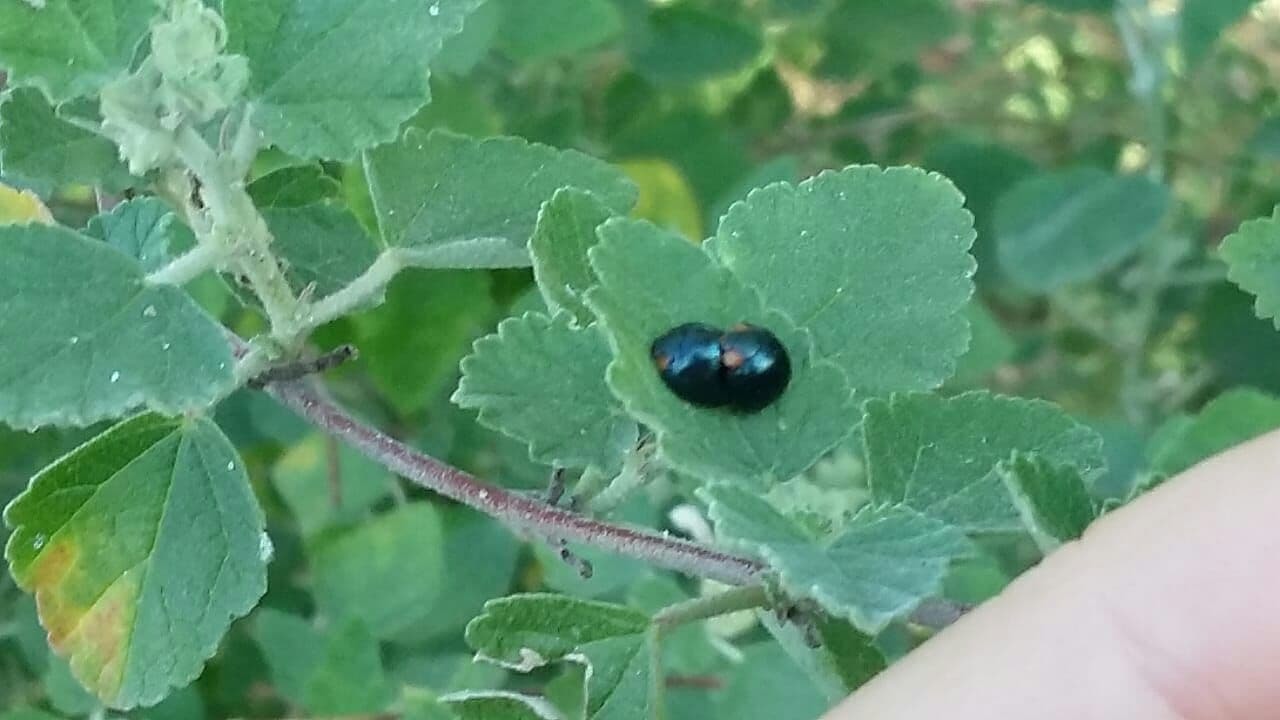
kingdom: Animalia
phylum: Arthropoda
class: Insecta
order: Coleoptera
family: Coccinellidae
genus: Curinus
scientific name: Curinus coeruleus
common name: Ladybird beetle
